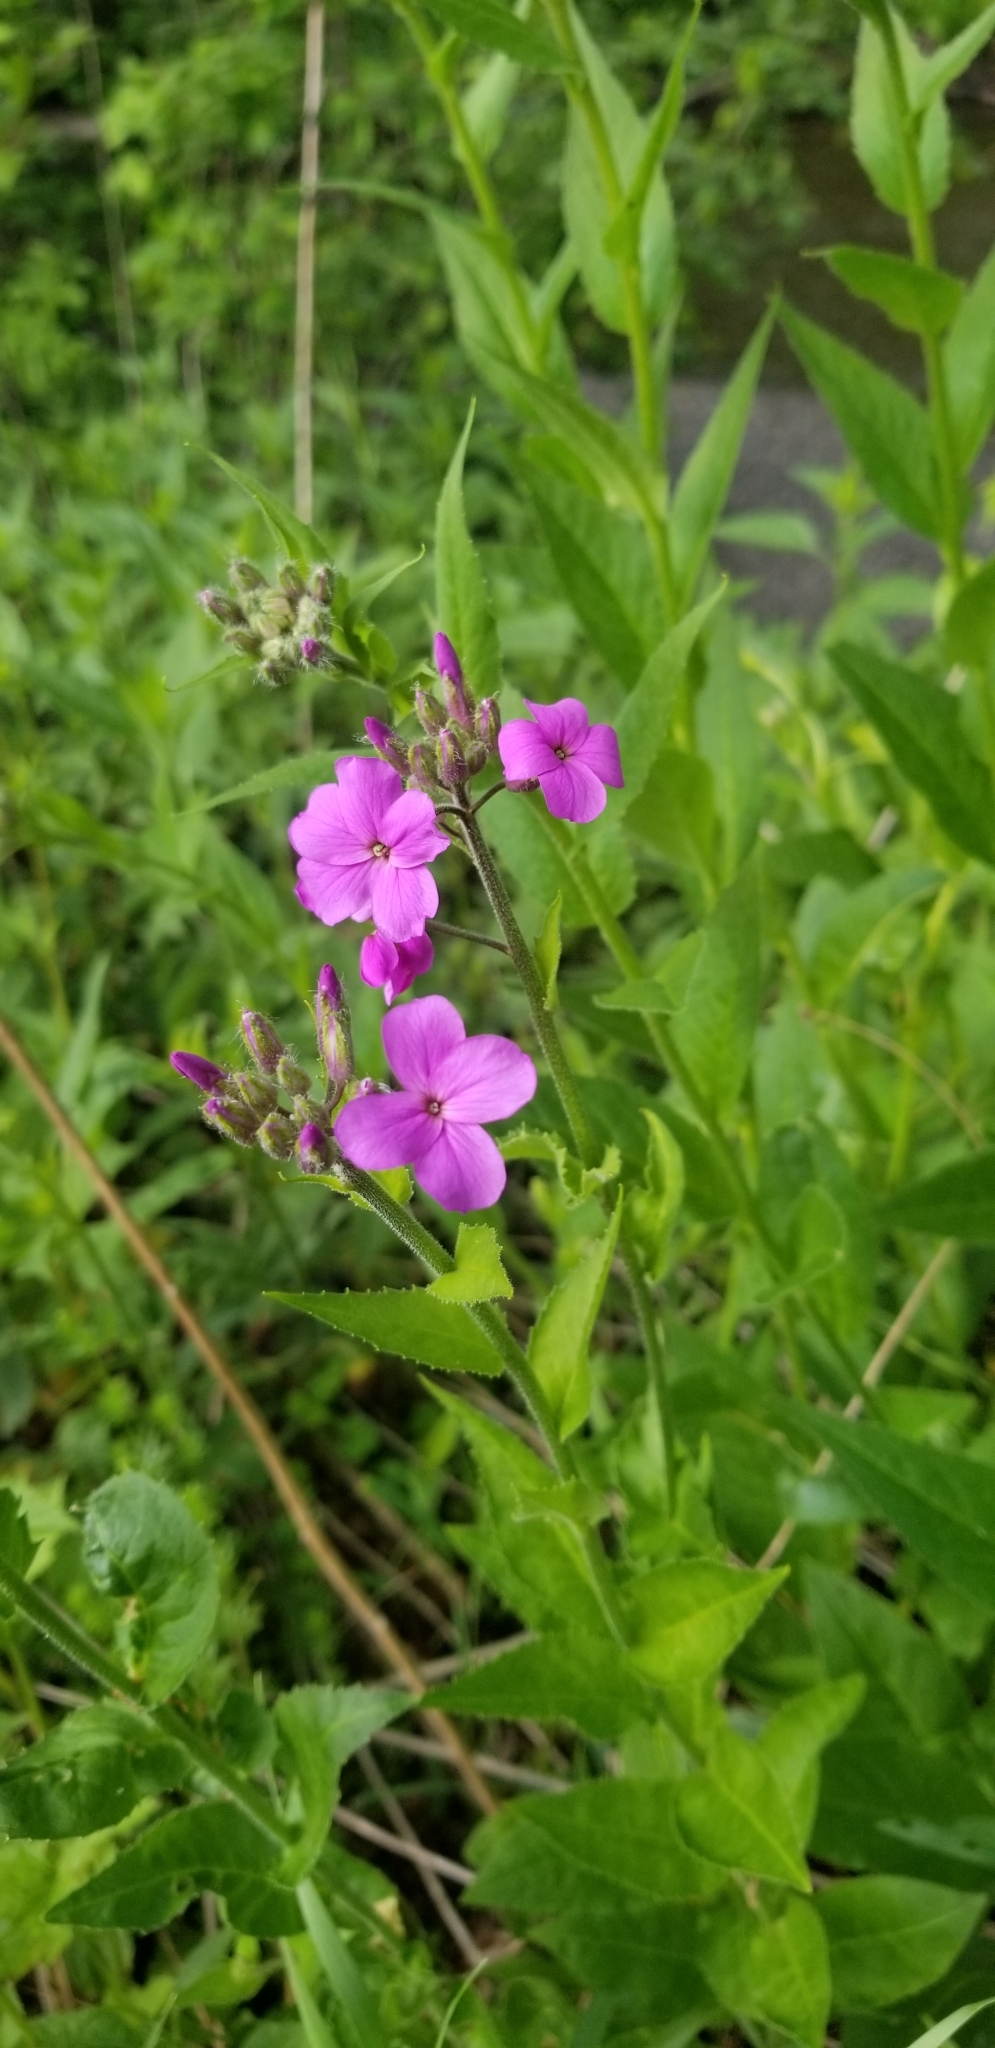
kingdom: Plantae
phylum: Tracheophyta
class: Magnoliopsida
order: Brassicales
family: Brassicaceae
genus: Hesperis
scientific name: Hesperis matronalis
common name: Dame's-violet
